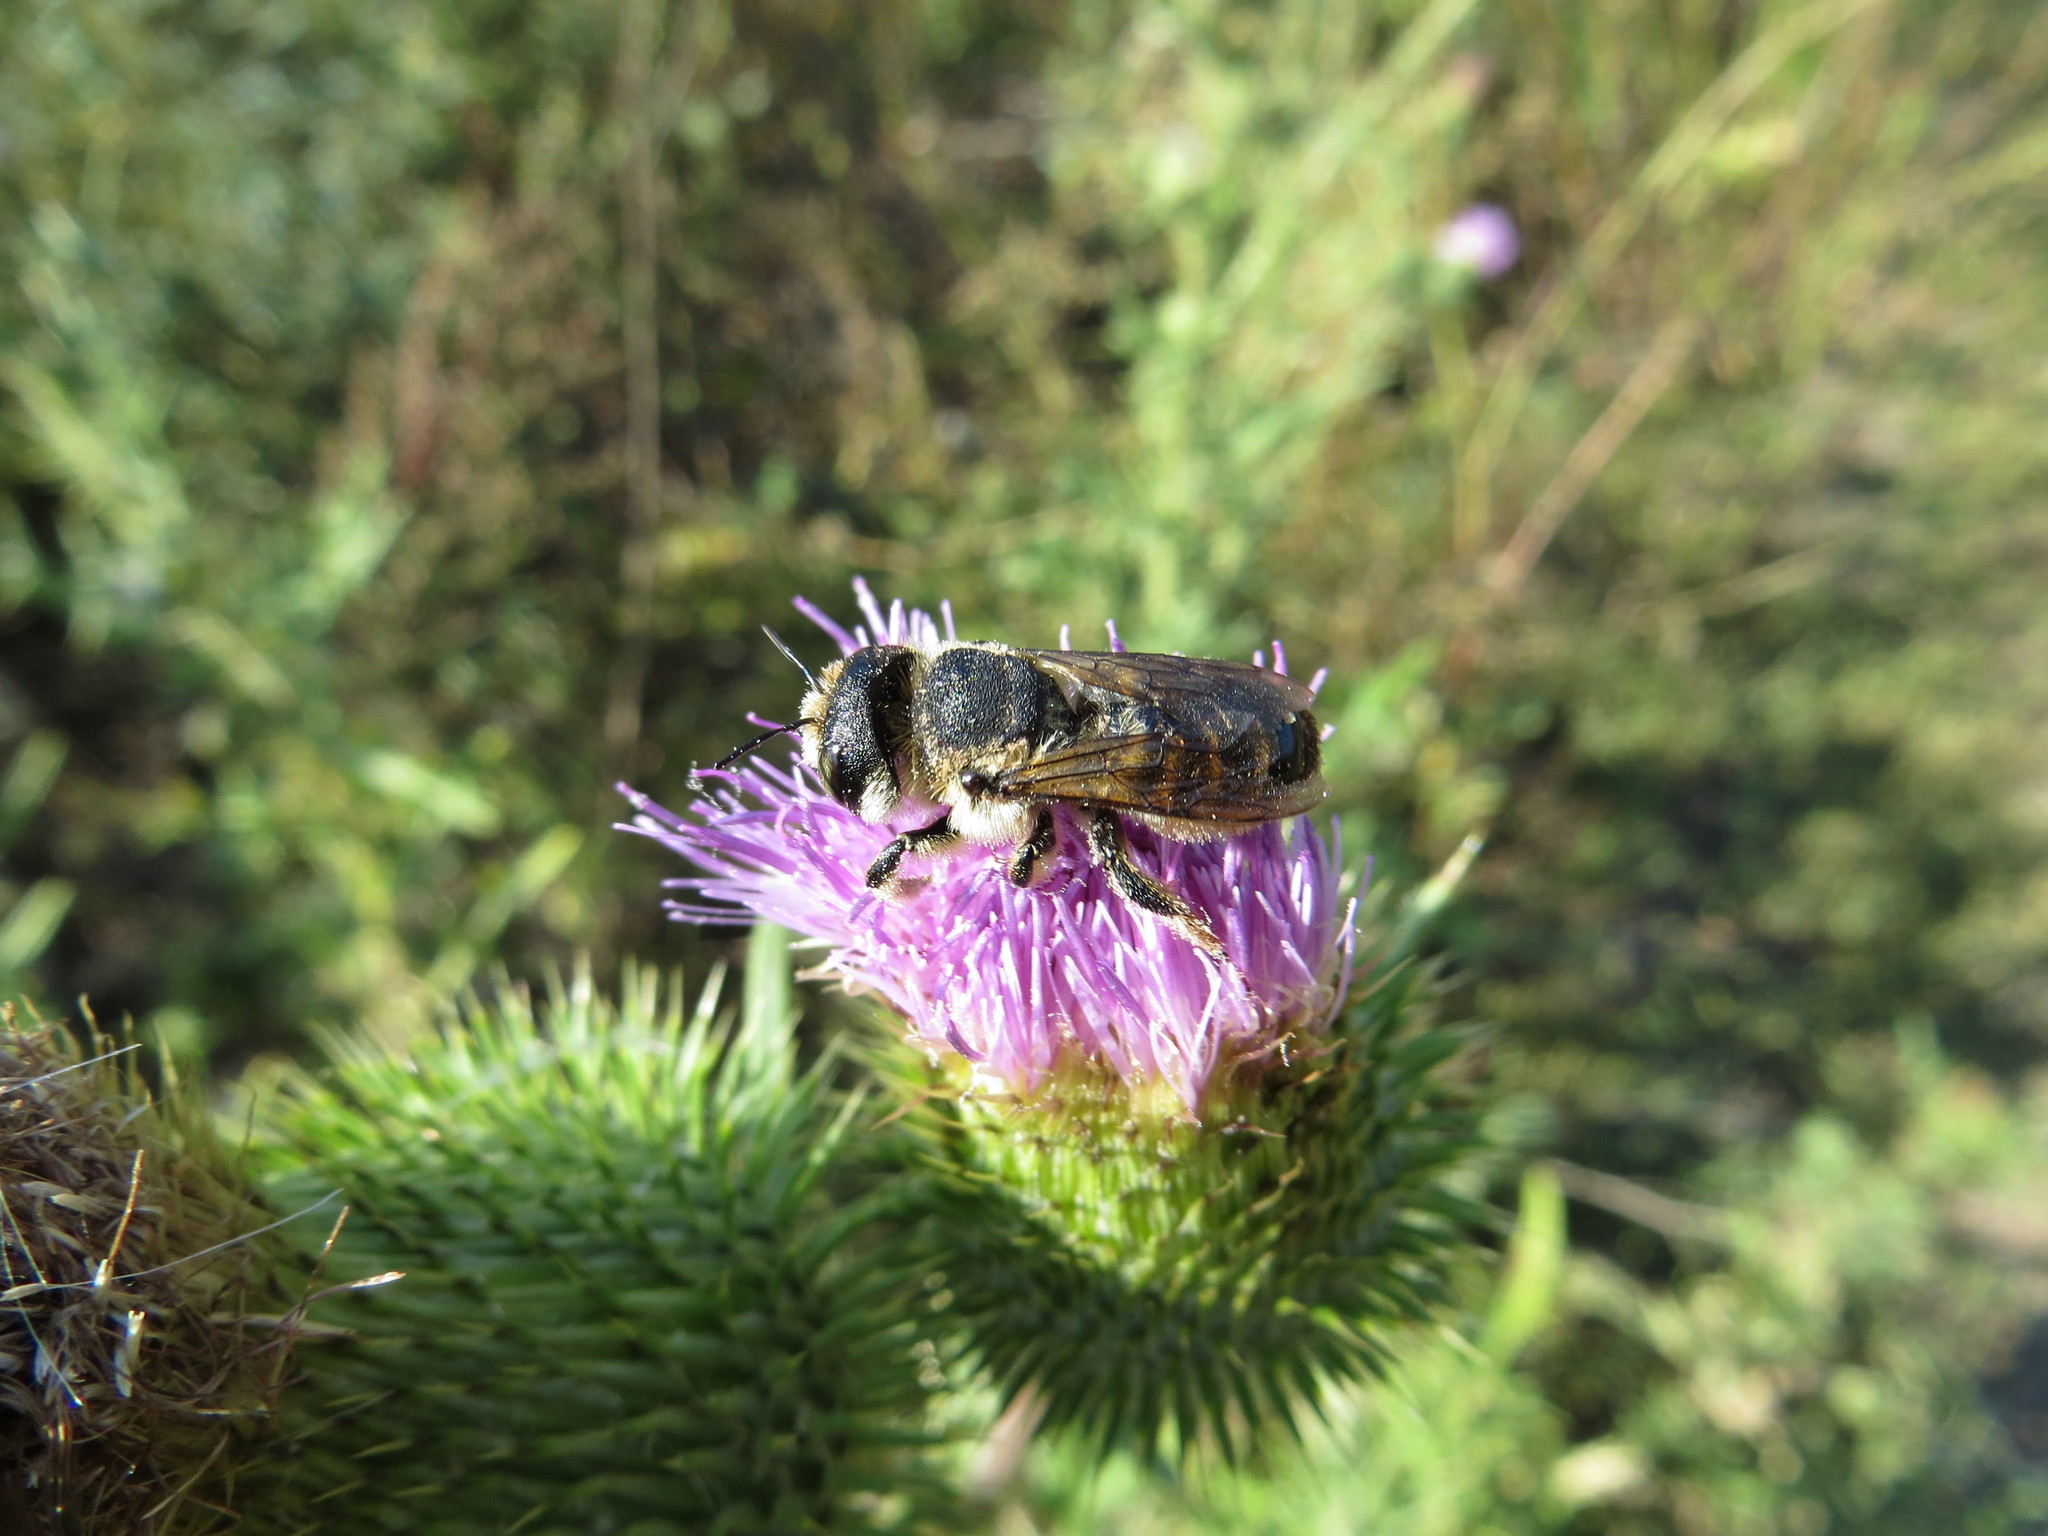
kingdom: Animalia
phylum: Arthropoda
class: Insecta
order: Hymenoptera
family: Megachilidae
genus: Lithurgus
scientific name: Lithurgus cornutus
